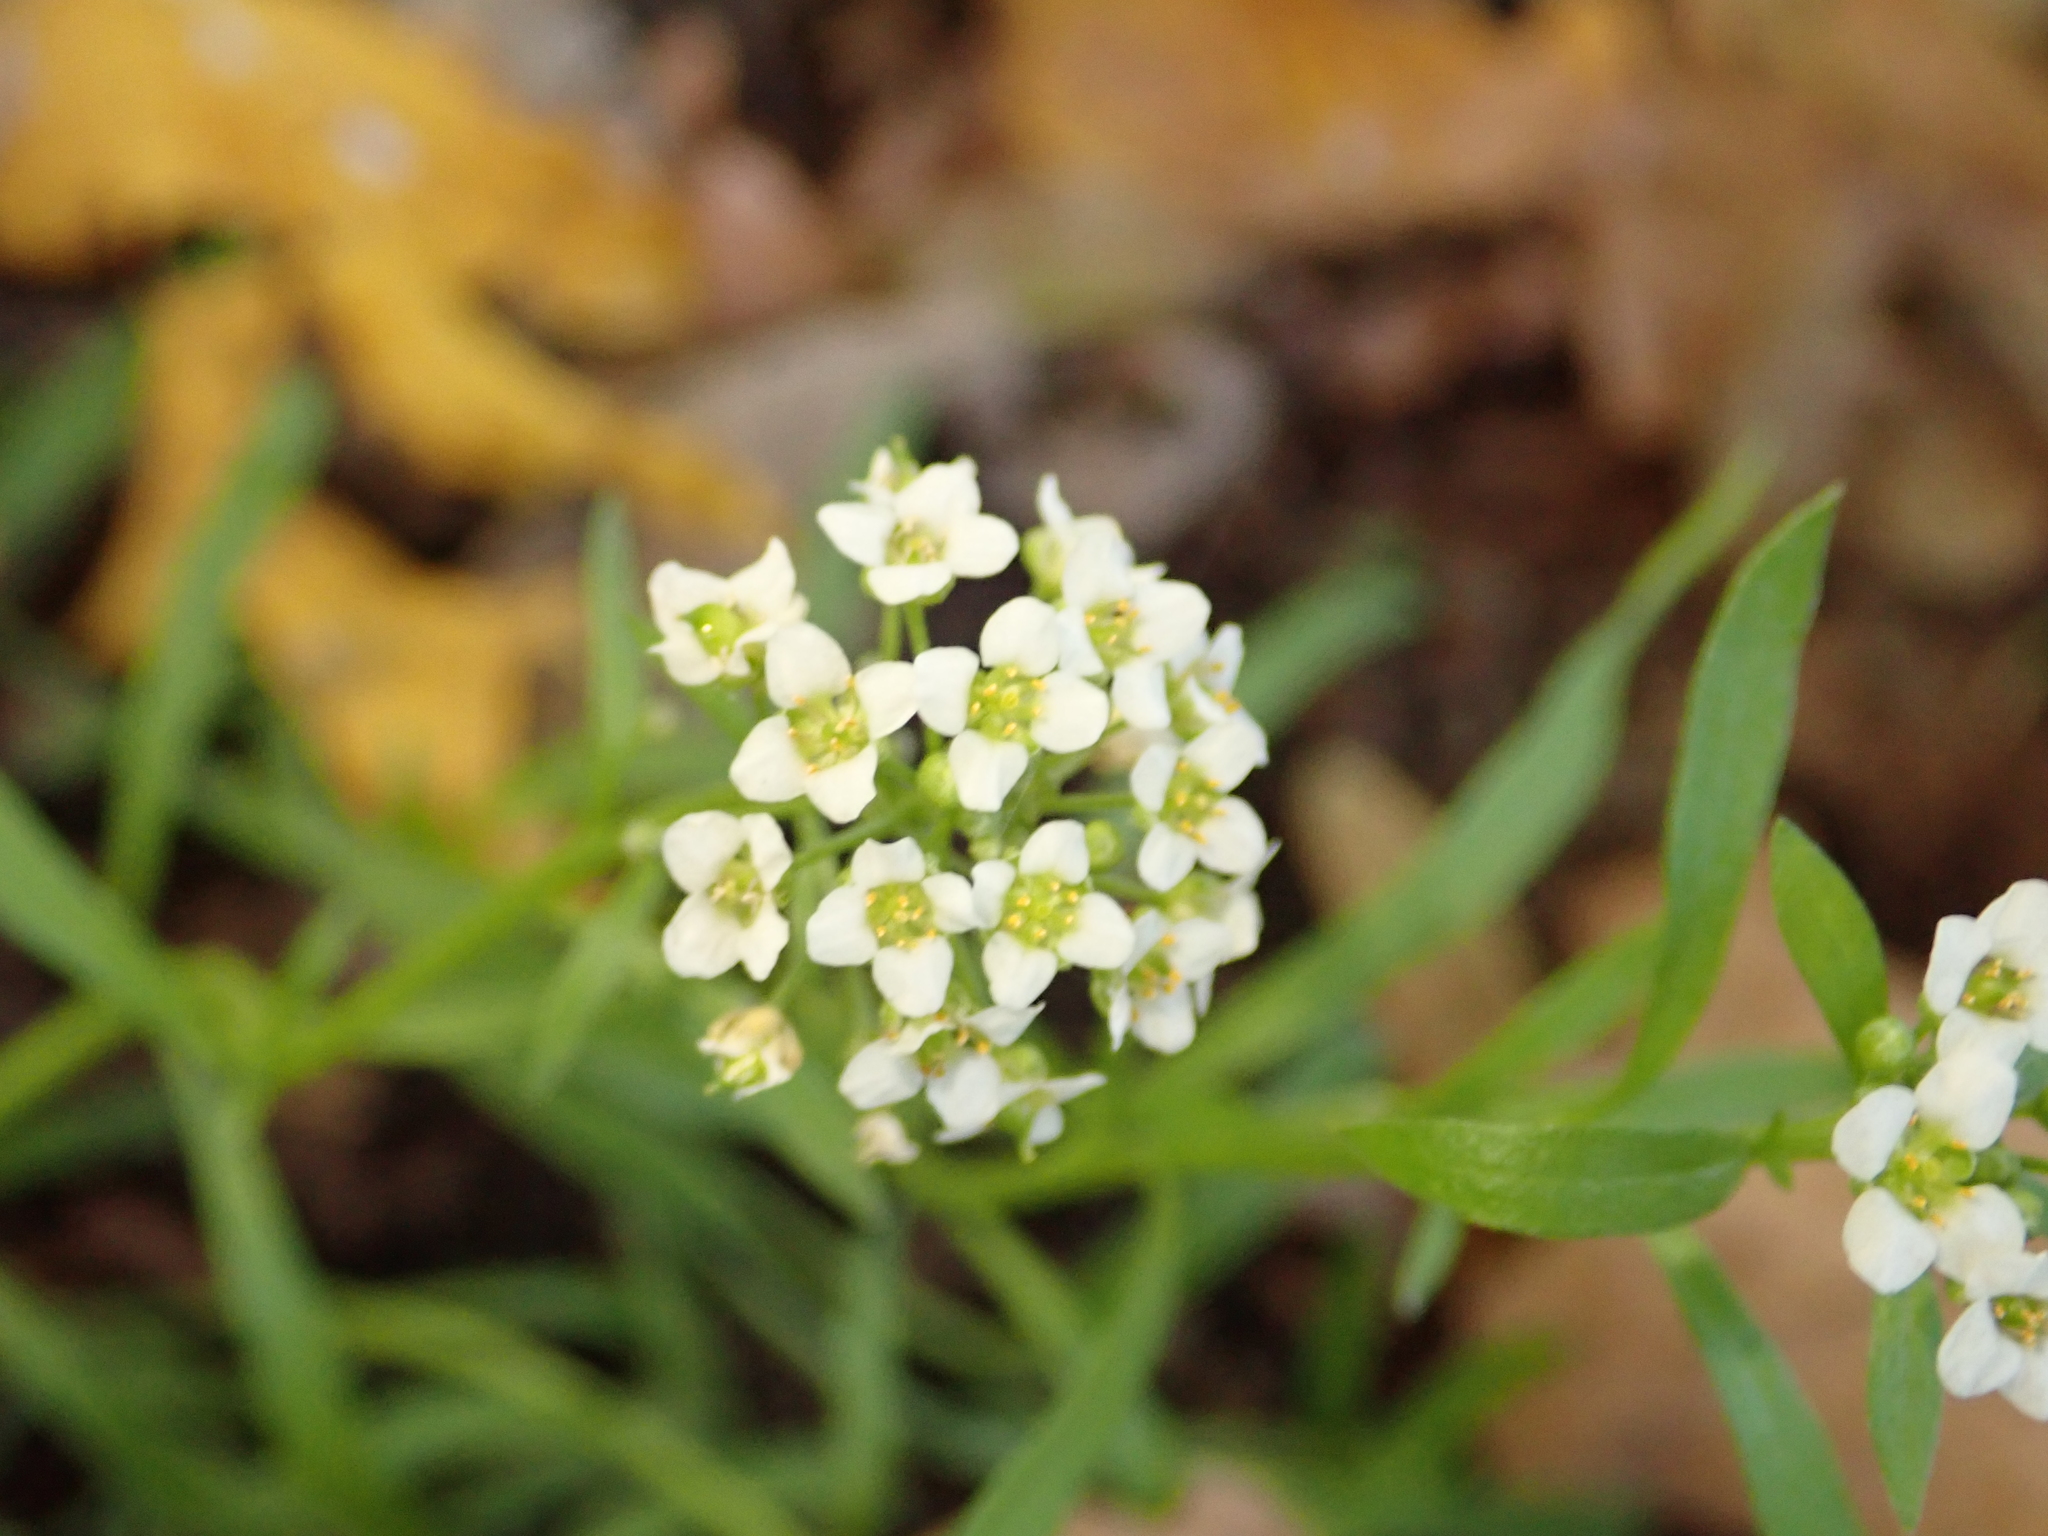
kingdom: Plantae
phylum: Tracheophyta
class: Magnoliopsida
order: Brassicales
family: Brassicaceae
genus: Lobularia
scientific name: Lobularia maritima
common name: Sweet alison
